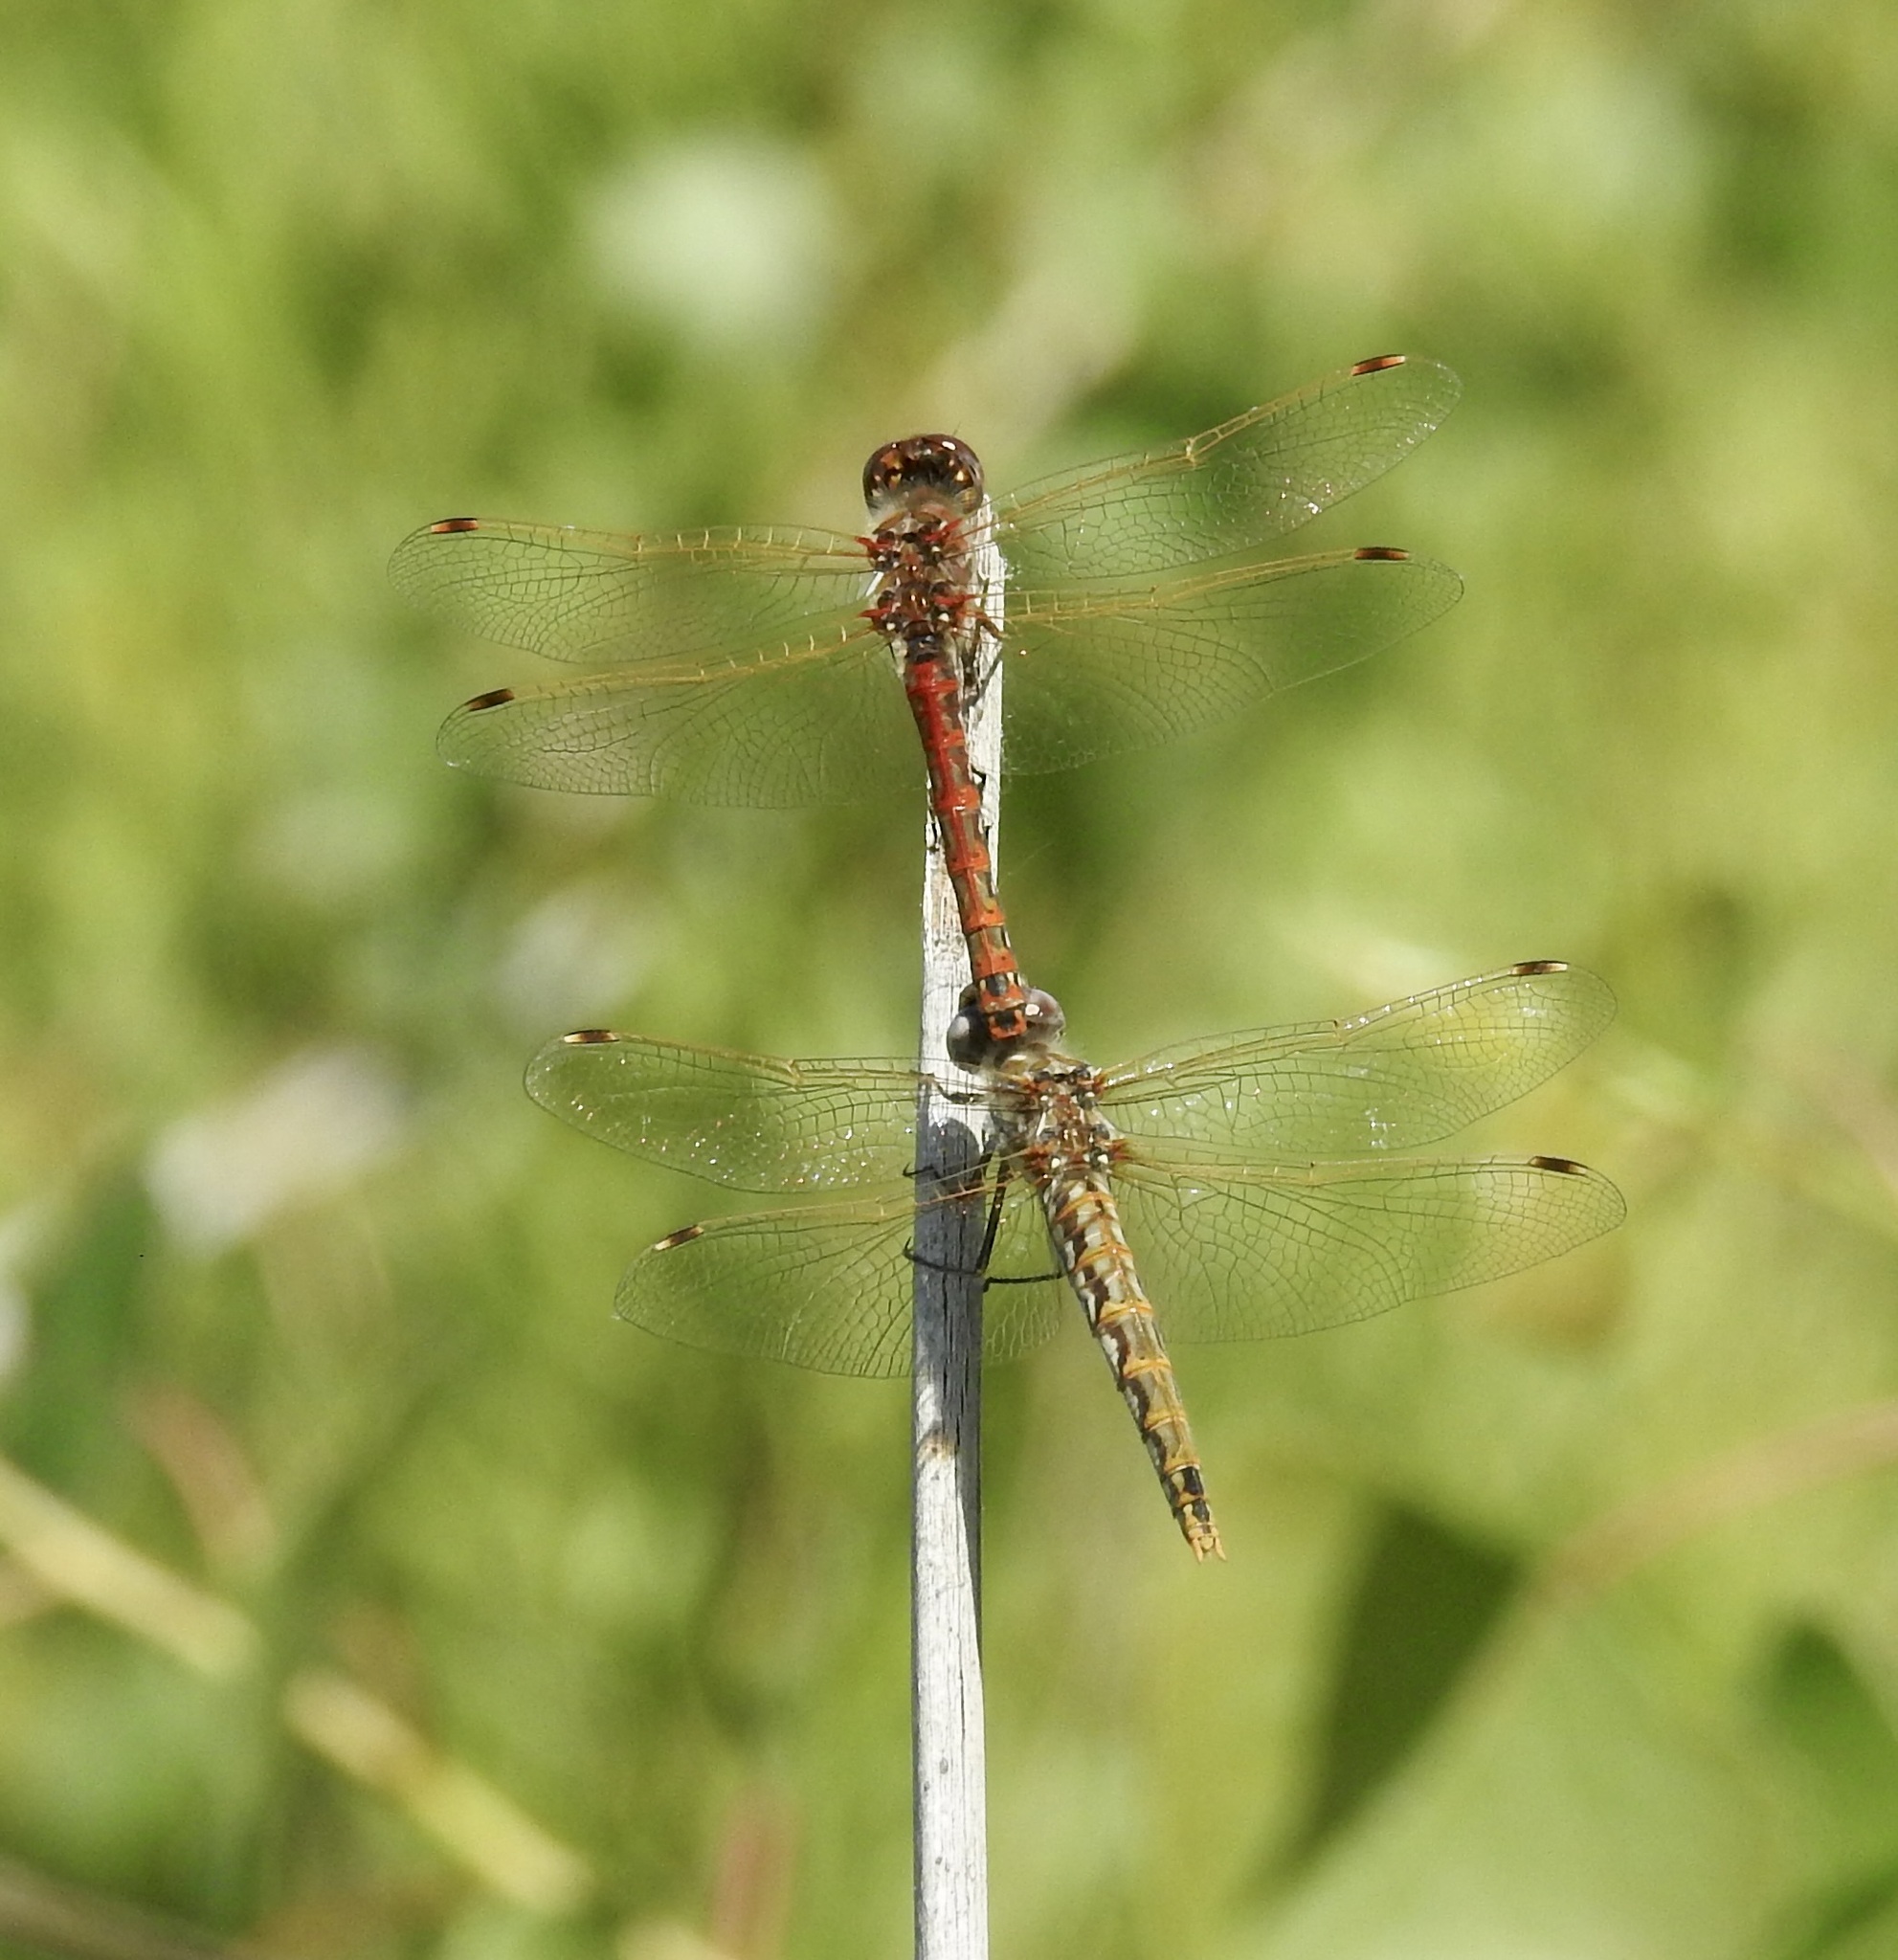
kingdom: Animalia
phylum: Arthropoda
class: Insecta
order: Odonata
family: Libellulidae
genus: Sympetrum
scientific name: Sympetrum corruptum
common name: Variegated meadowhawk
